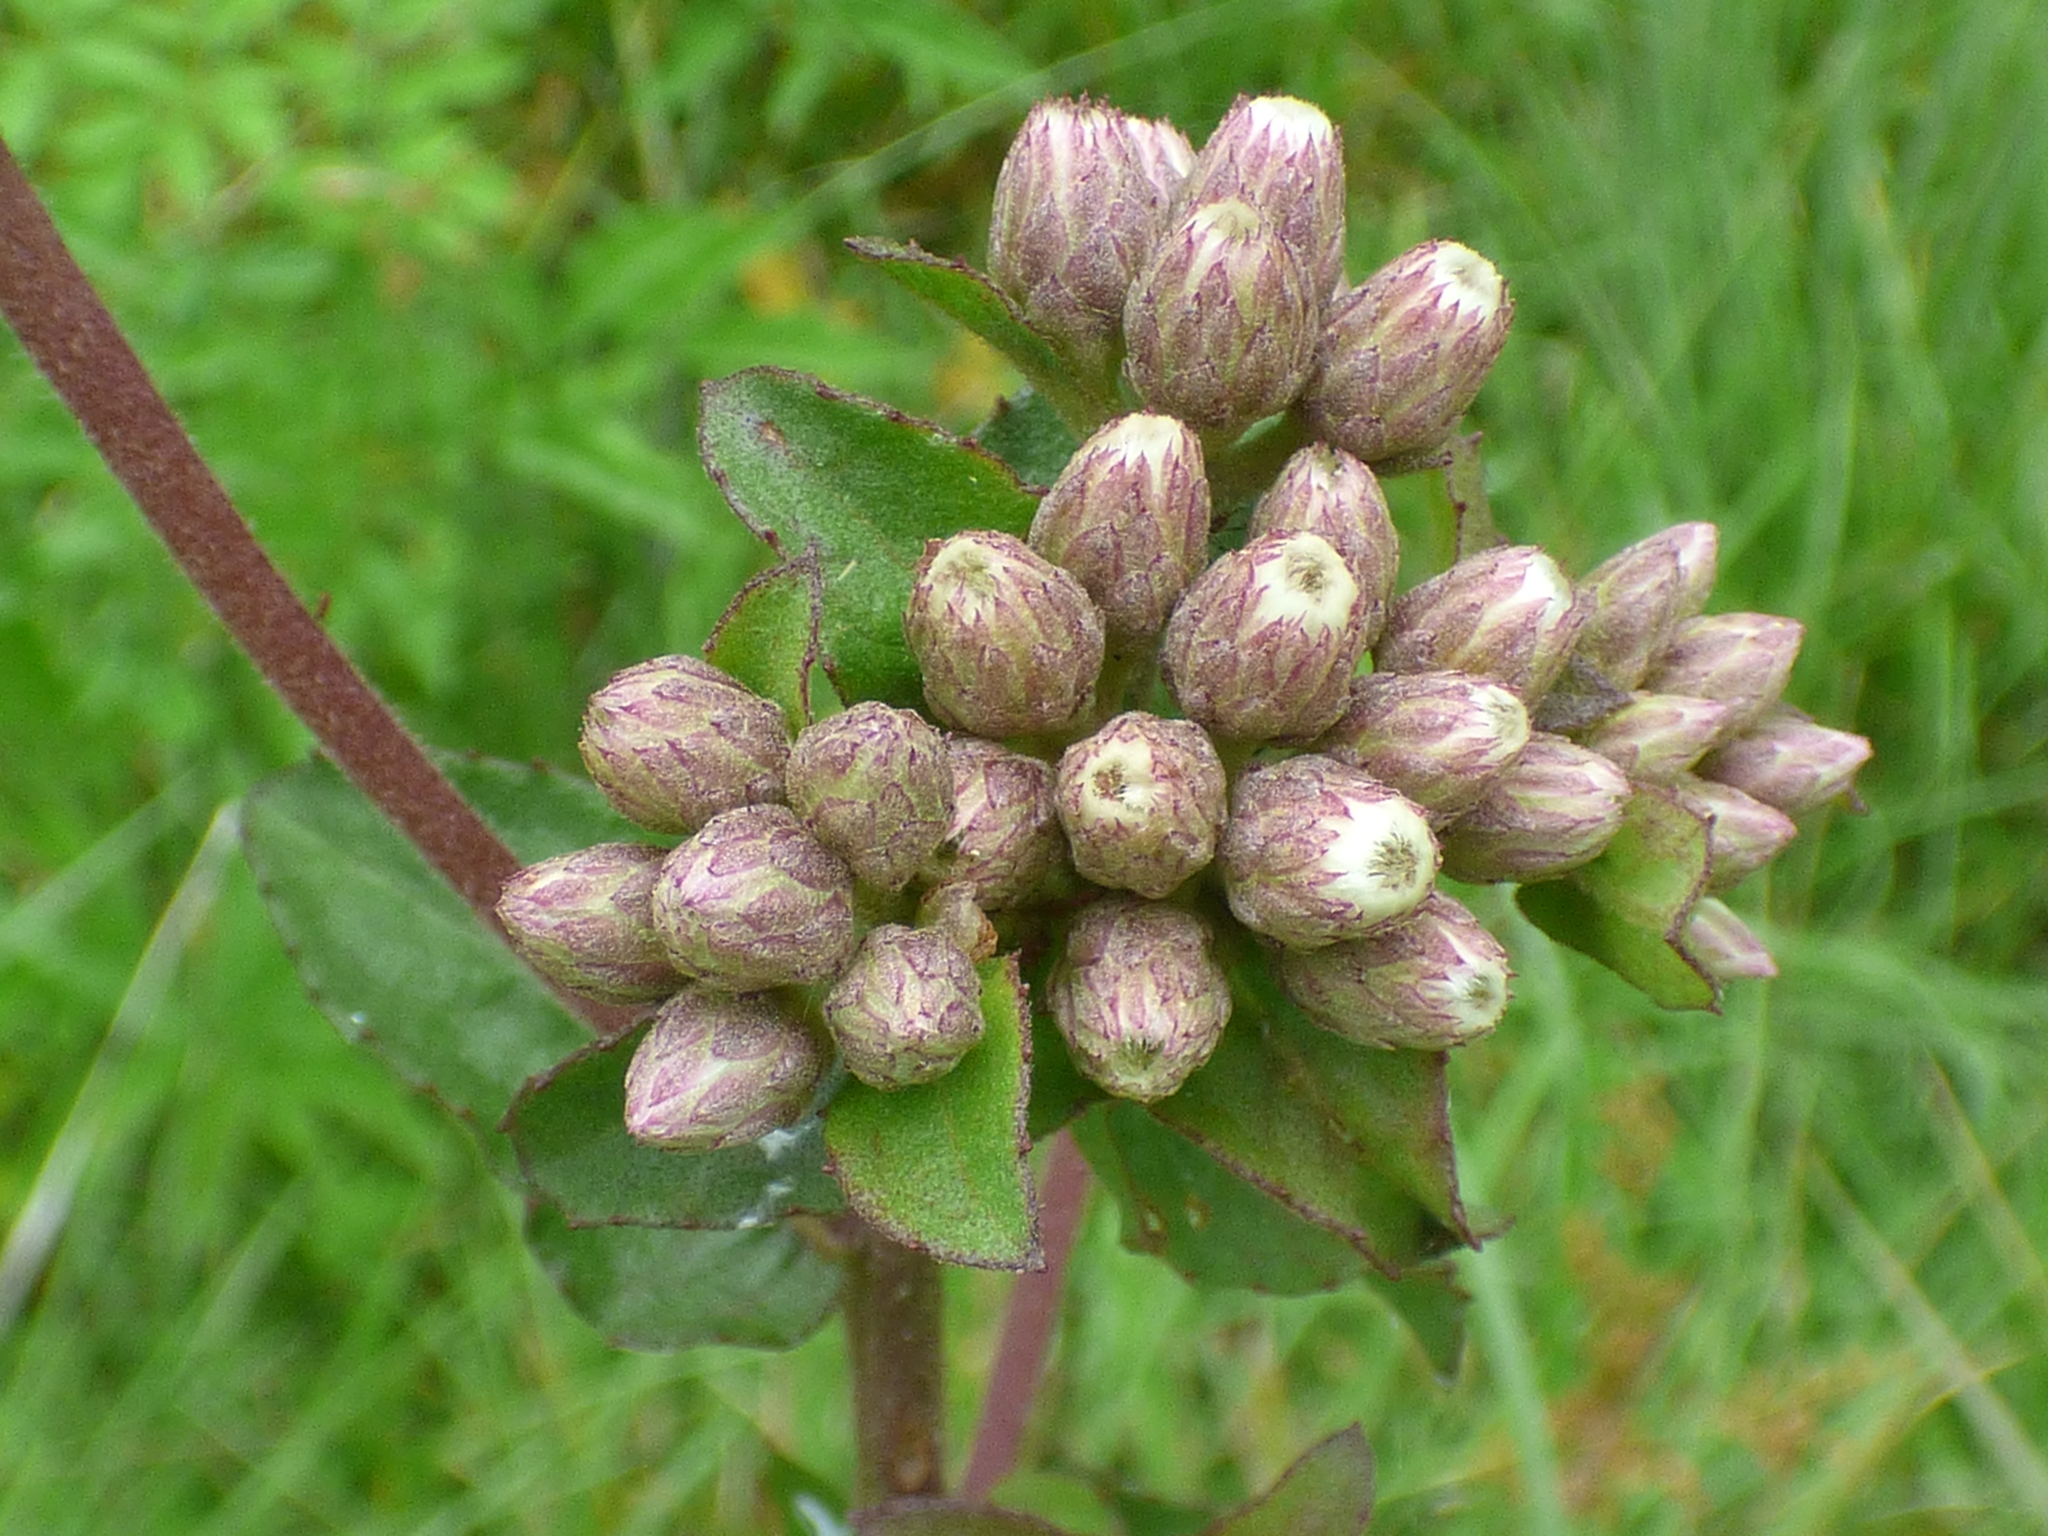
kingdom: Plantae
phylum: Tracheophyta
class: Magnoliopsida
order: Asterales
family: Asteraceae
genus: Pluchea
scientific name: Pluchea foetida
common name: Stinking camphorweed
